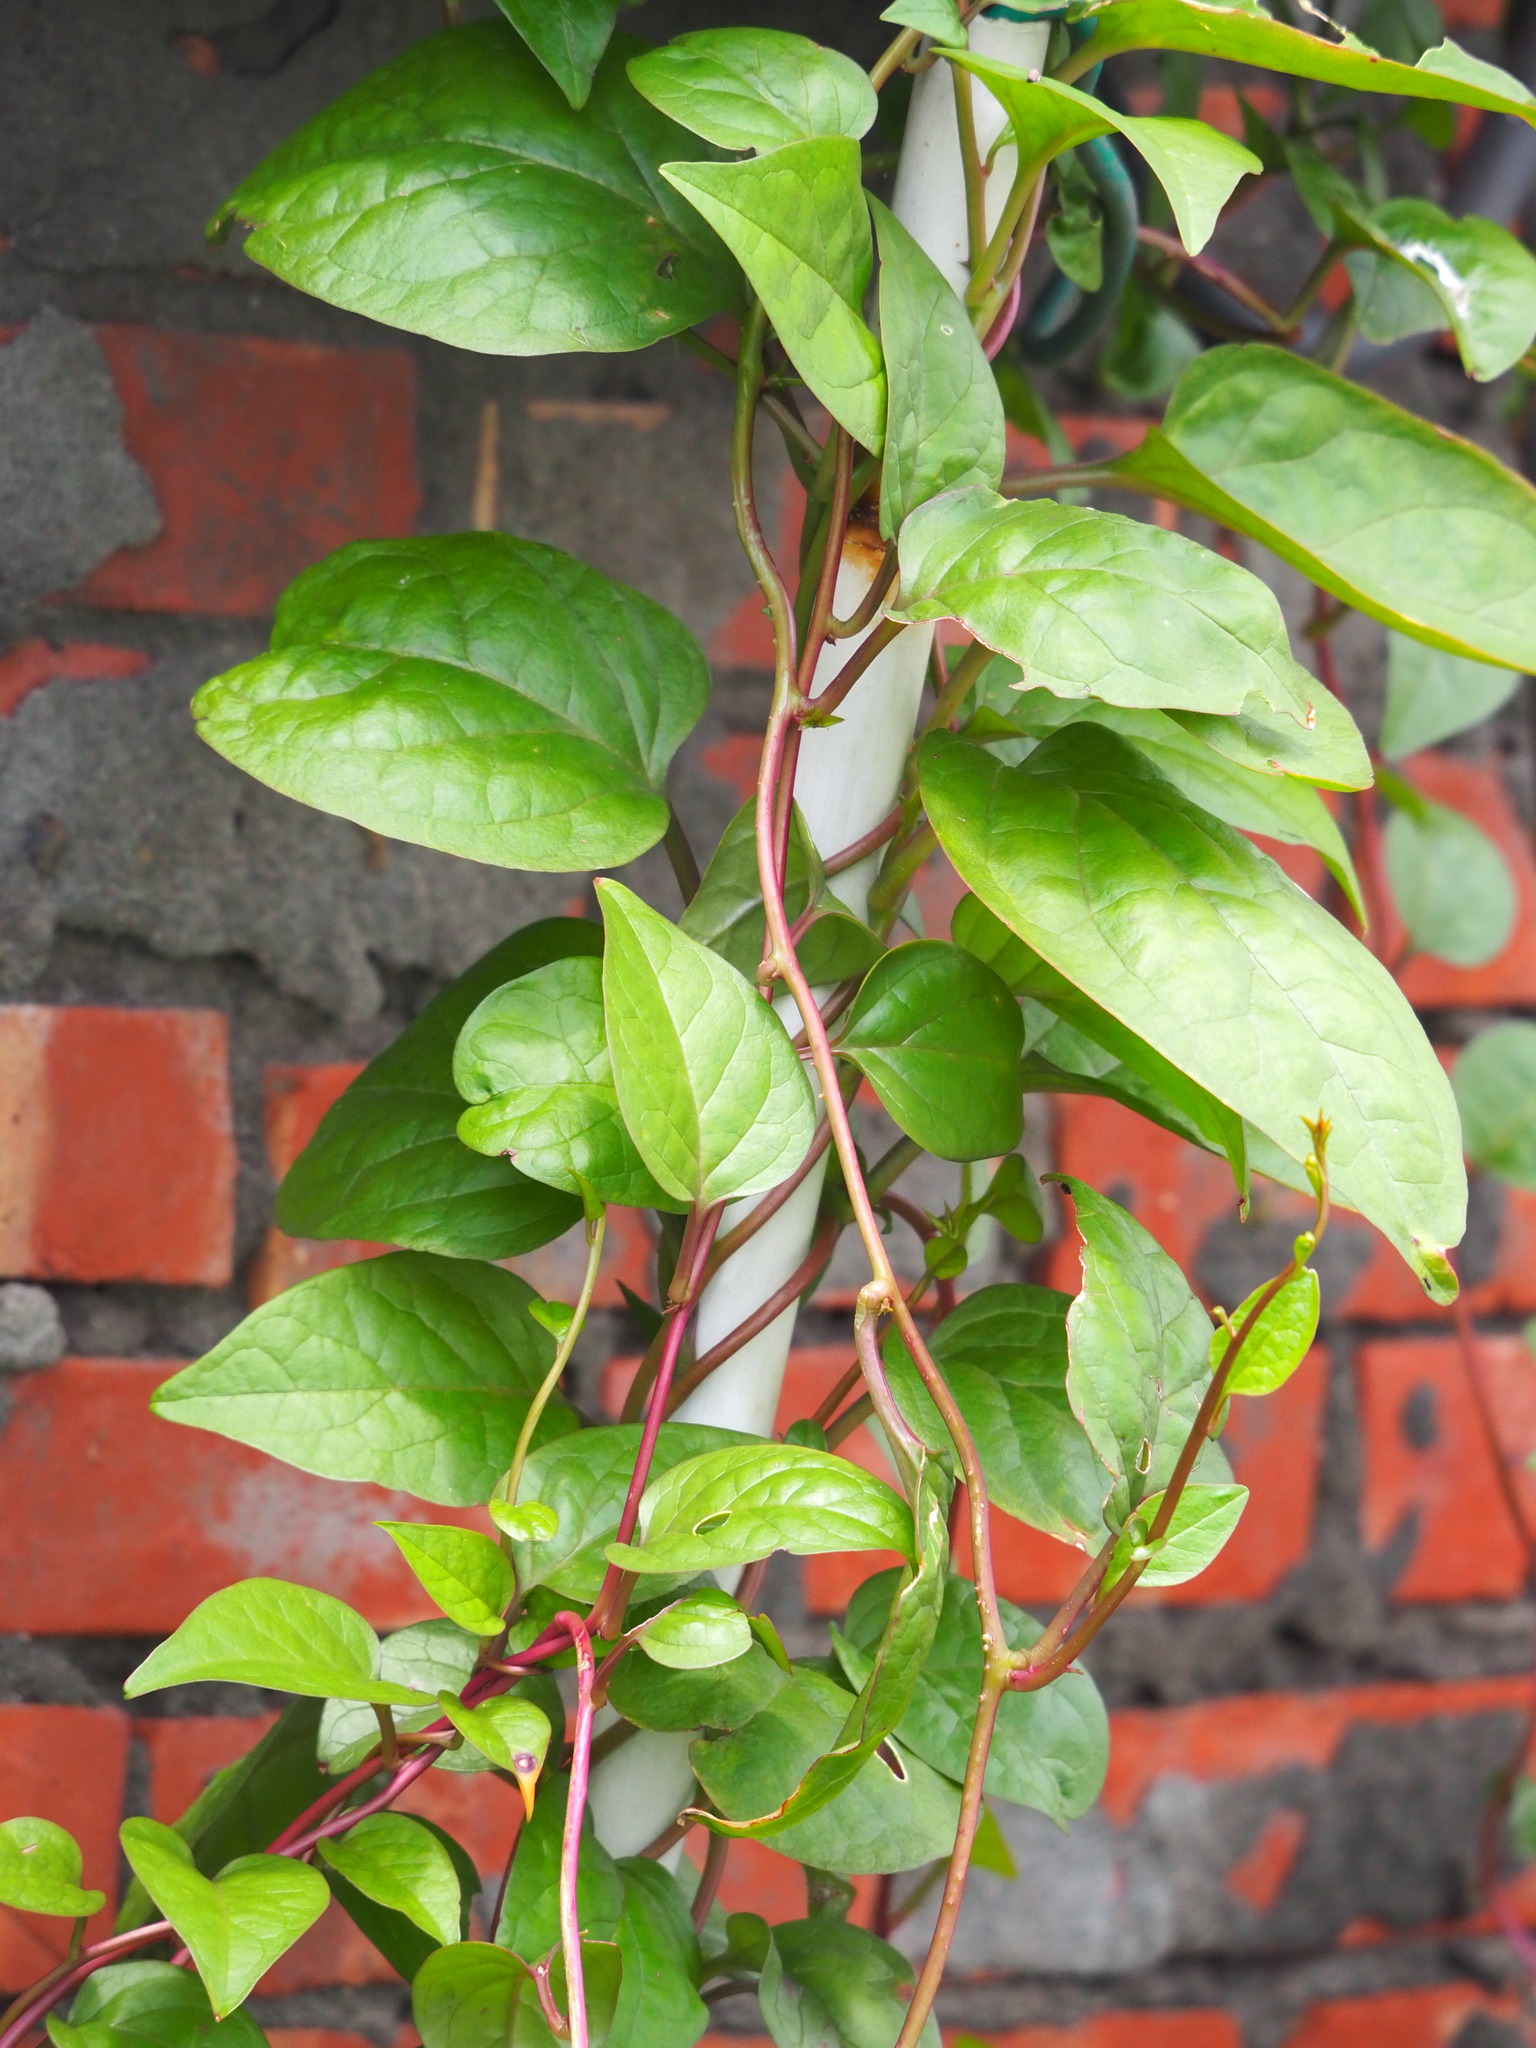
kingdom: Plantae
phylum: Tracheophyta
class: Magnoliopsida
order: Caryophyllales
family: Basellaceae
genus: Basella
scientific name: Basella alba
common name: Indian spinach
